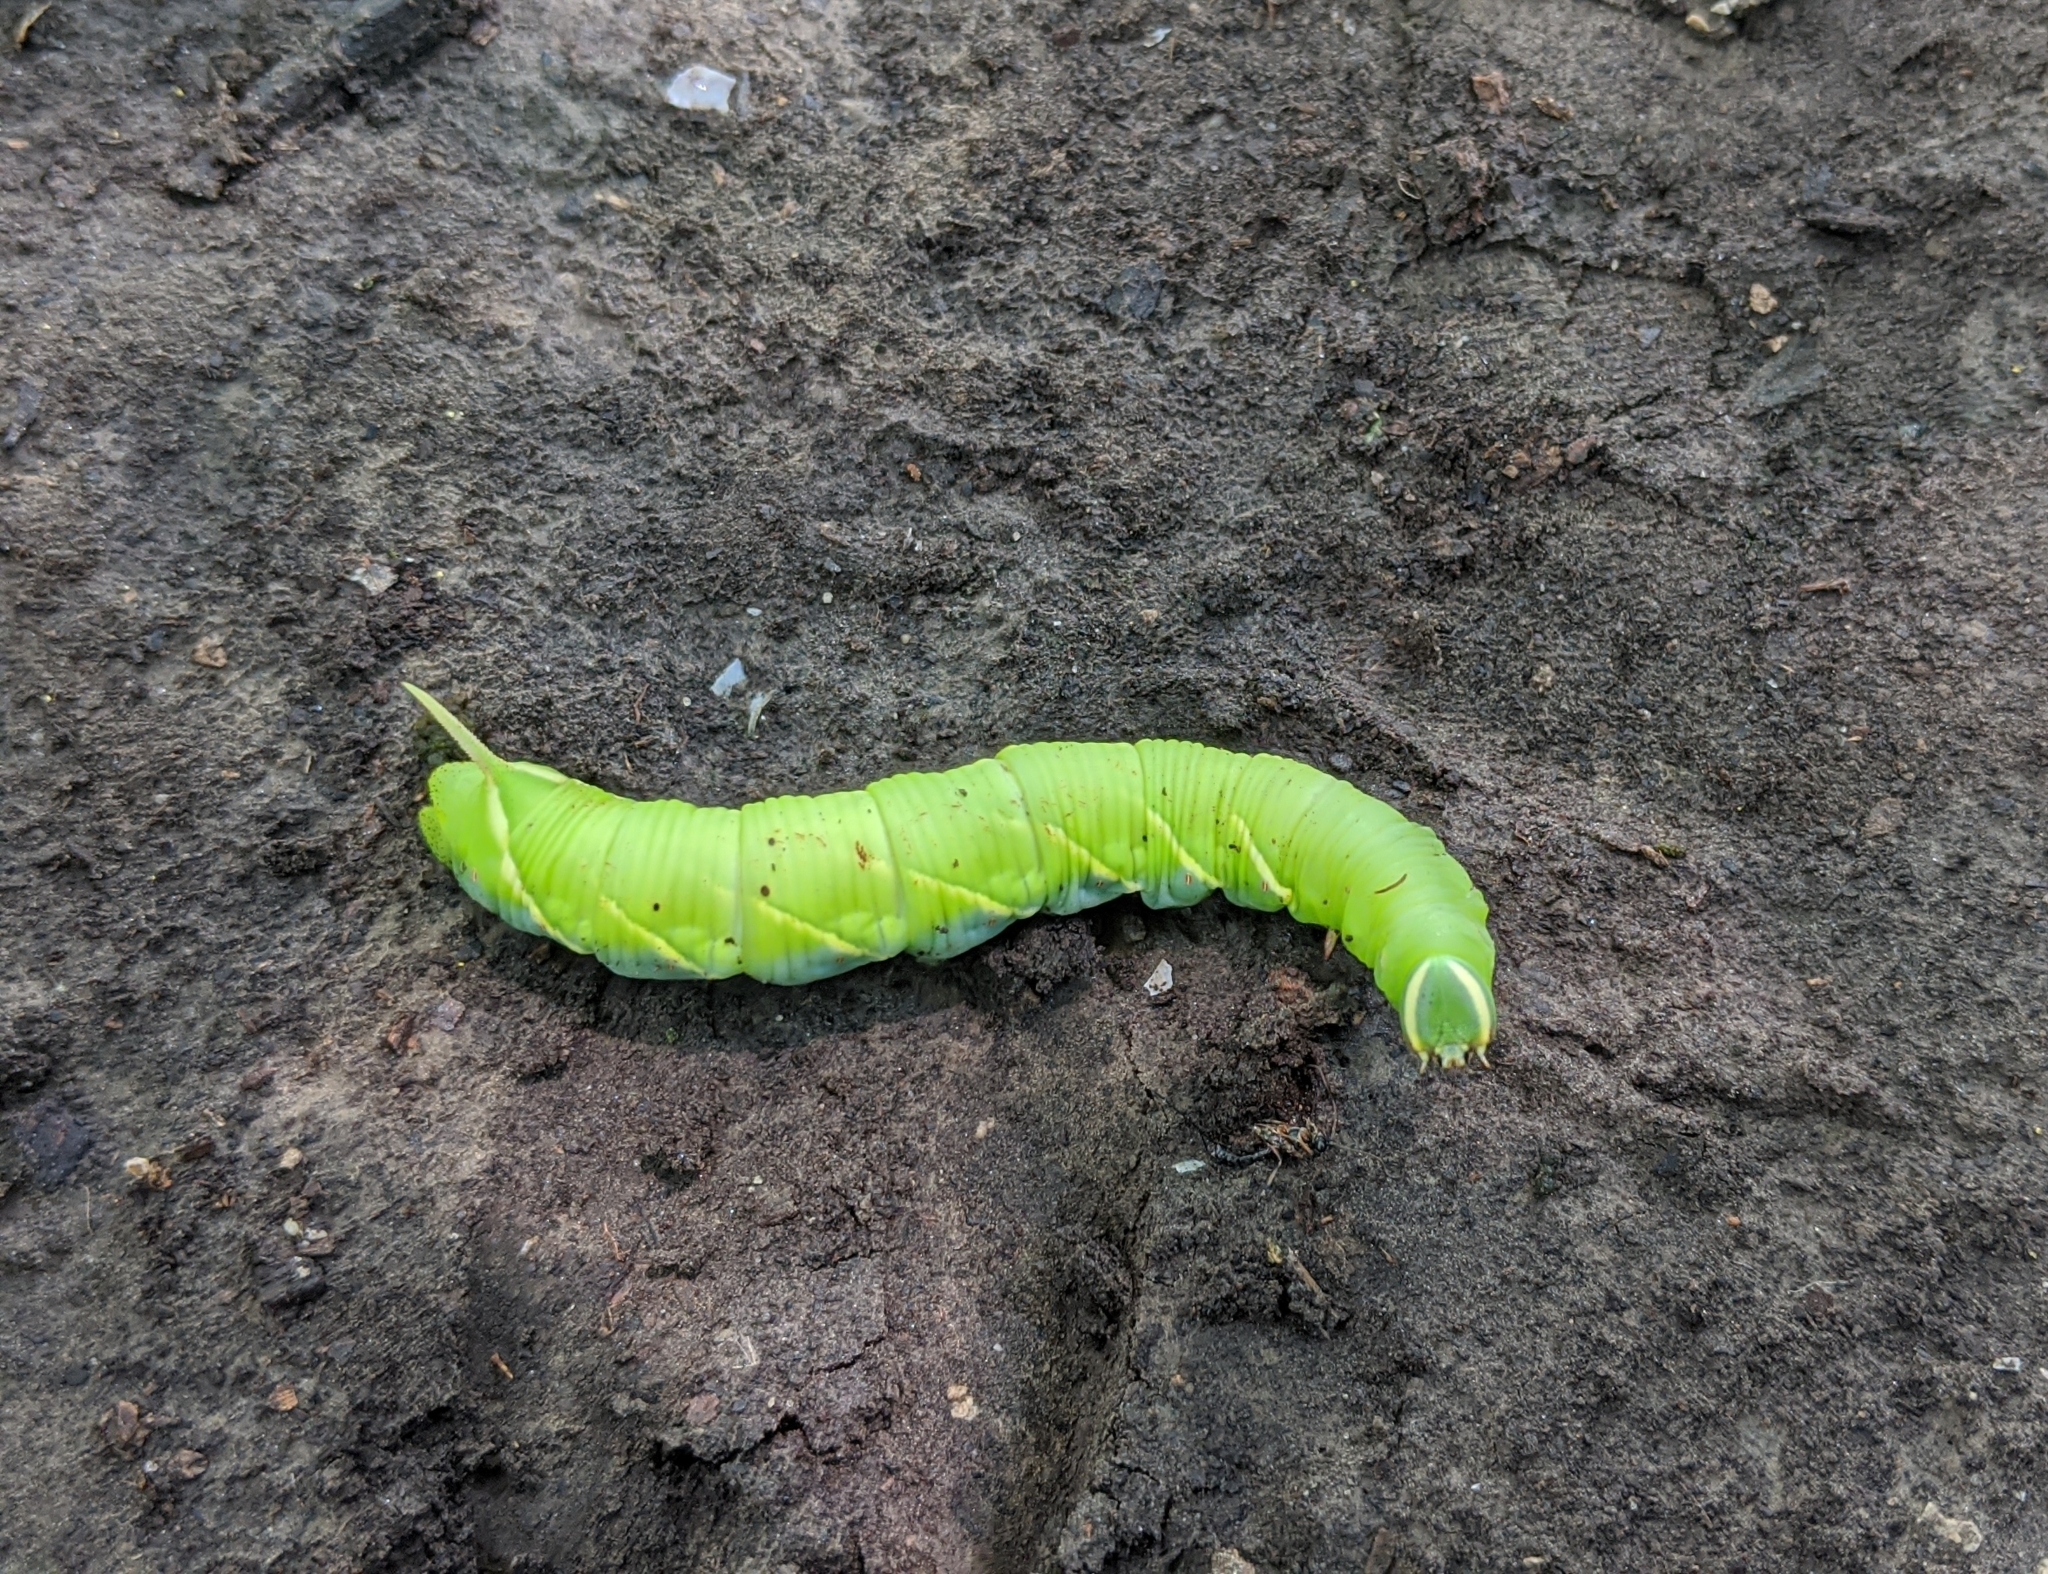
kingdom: Animalia
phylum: Arthropoda
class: Insecta
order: Lepidoptera
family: Sphingidae
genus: Ceratomia
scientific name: Ceratomia undulosa
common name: Waved sphinx
